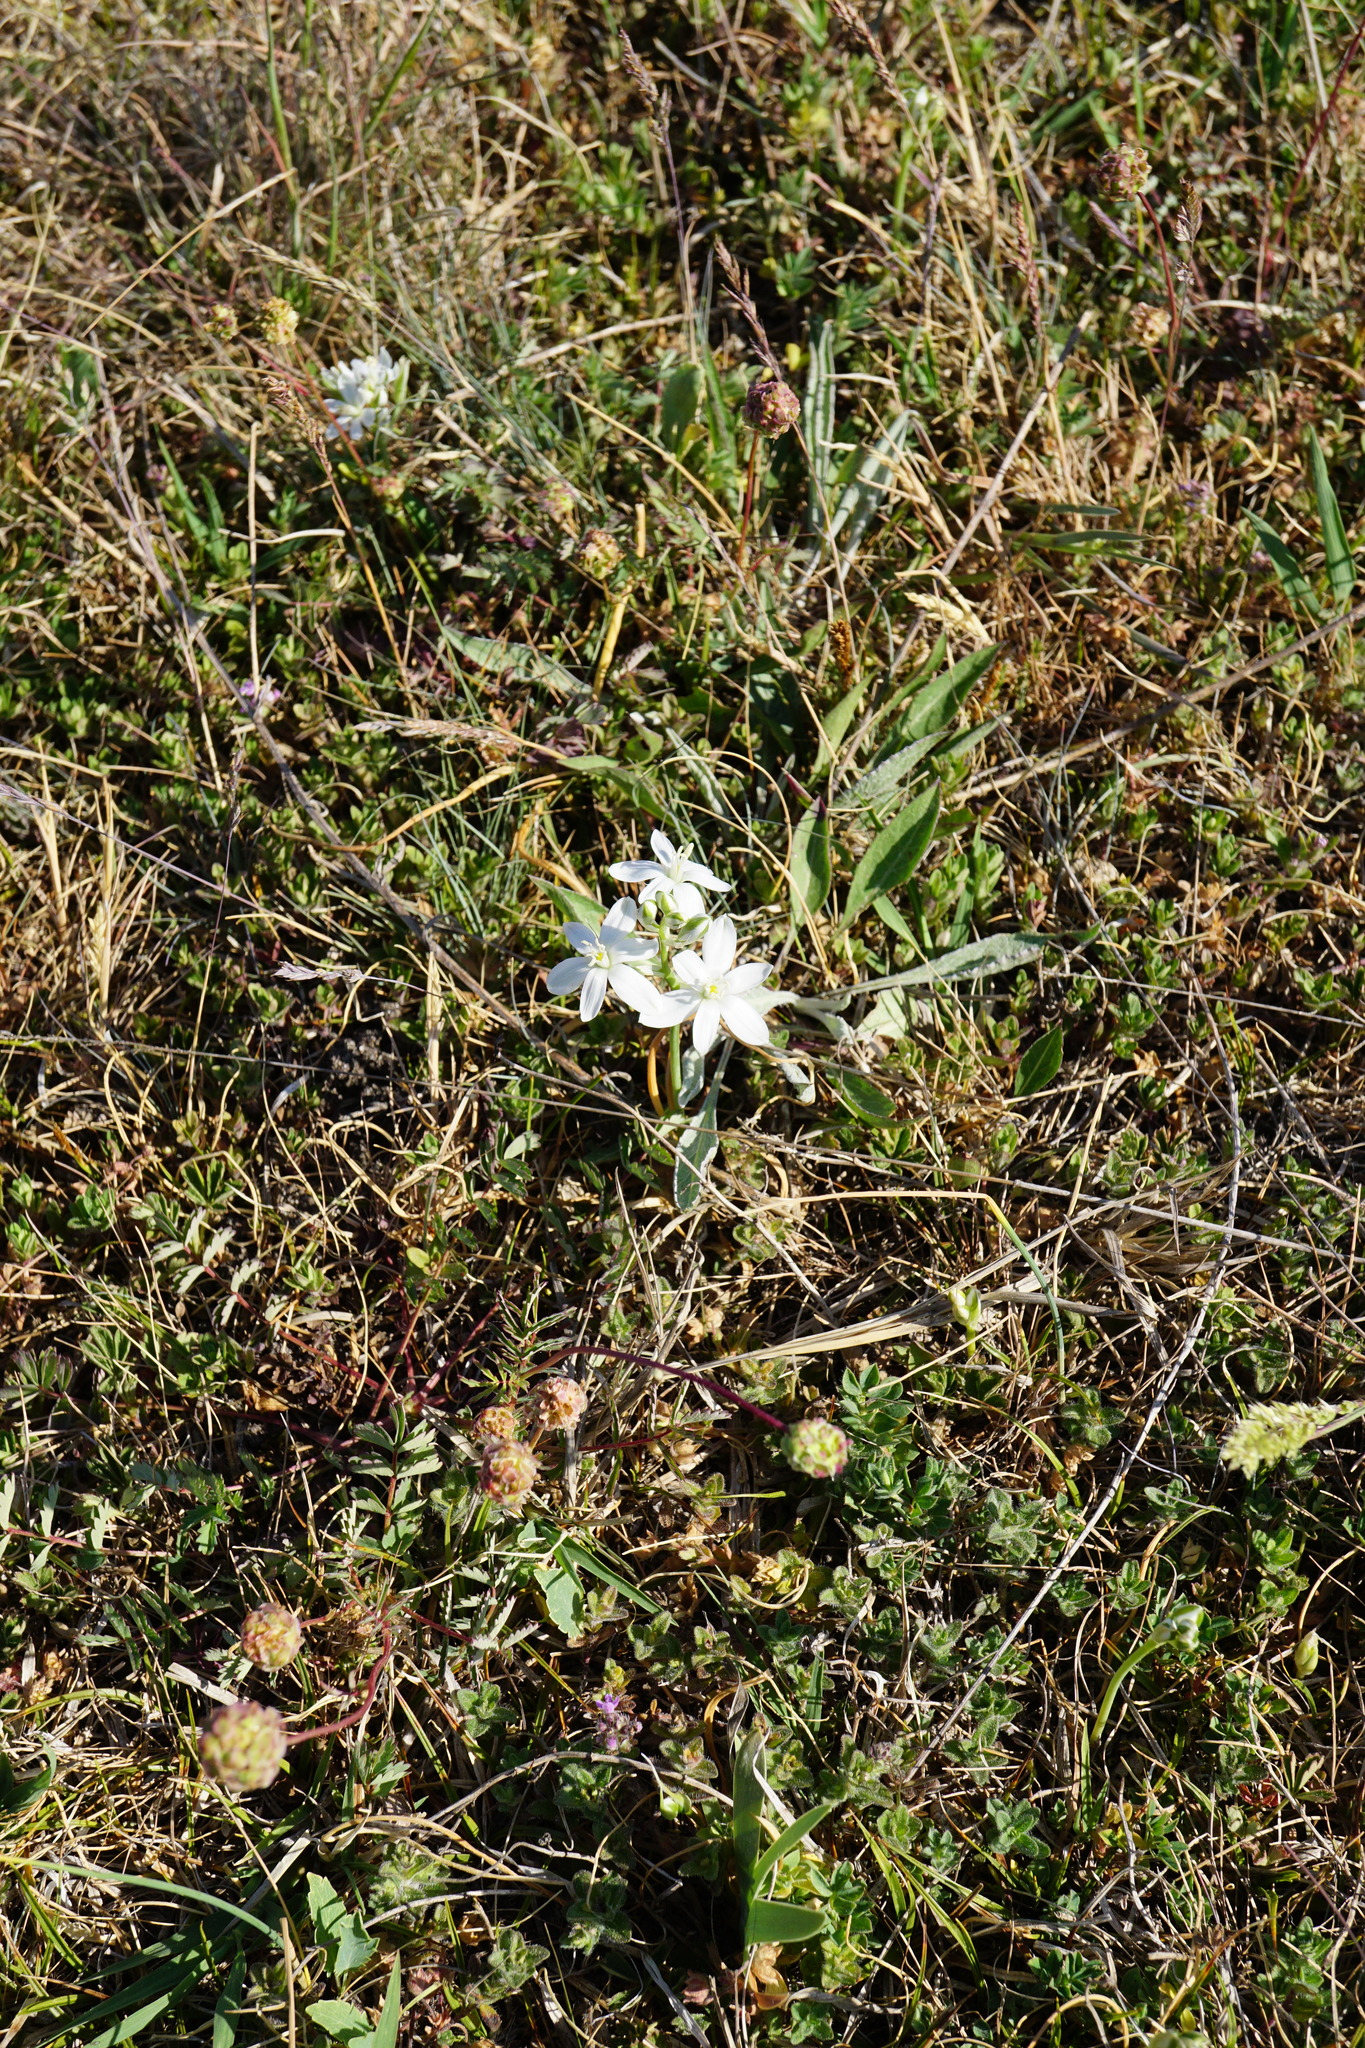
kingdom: Plantae
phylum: Tracheophyta
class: Liliopsida
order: Asparagales
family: Asparagaceae
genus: Ornithogalum
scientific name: Ornithogalum comosum
